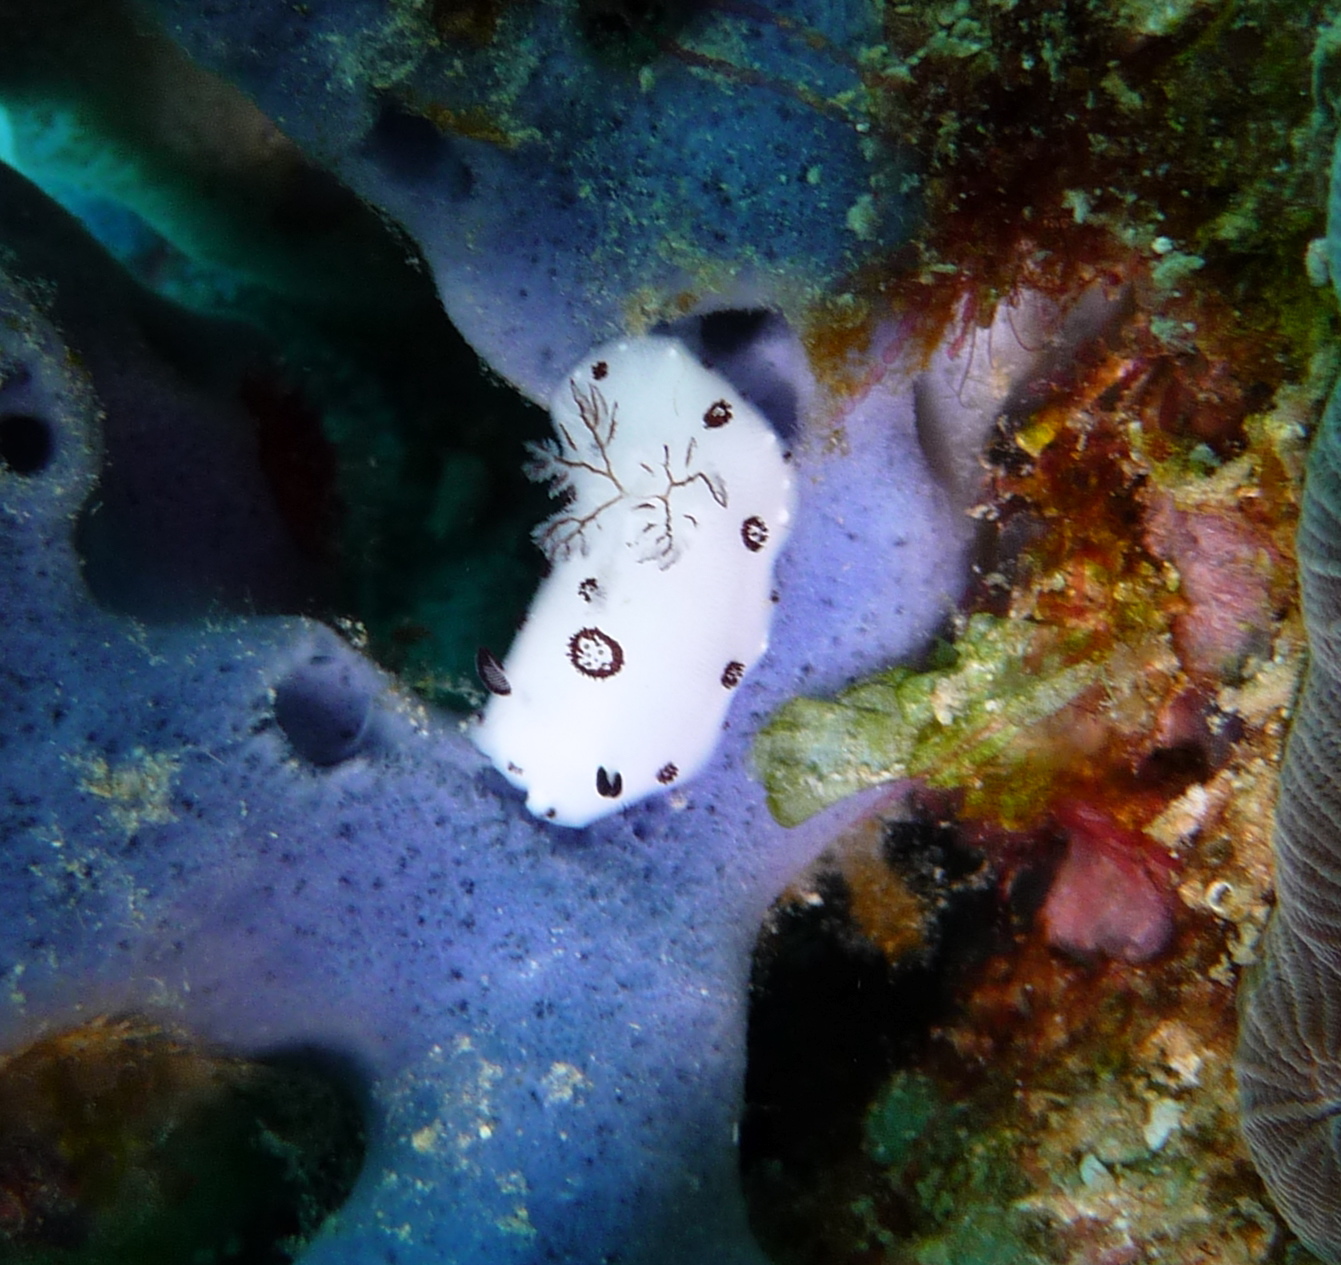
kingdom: Animalia
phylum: Mollusca
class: Gastropoda
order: Nudibranchia
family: Discodorididae
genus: Jorunna
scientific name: Jorunna funebris
